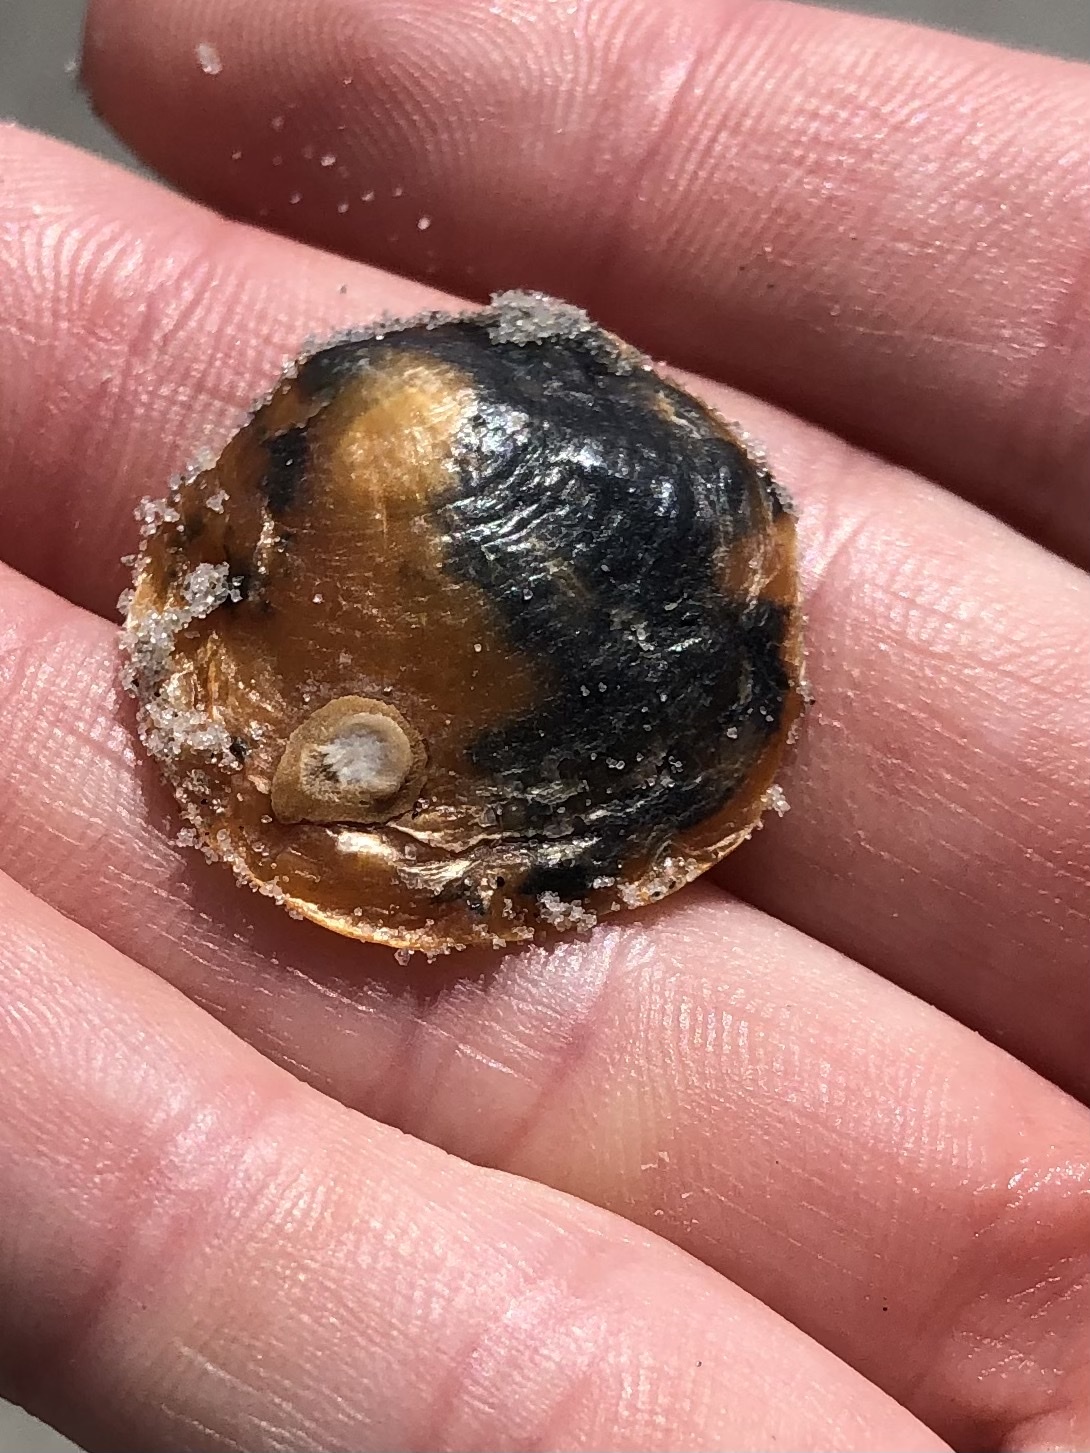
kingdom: Animalia
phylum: Mollusca
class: Bivalvia
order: Pectinida
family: Anomiidae
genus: Anomia
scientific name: Anomia simplex
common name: Common jingle shell
